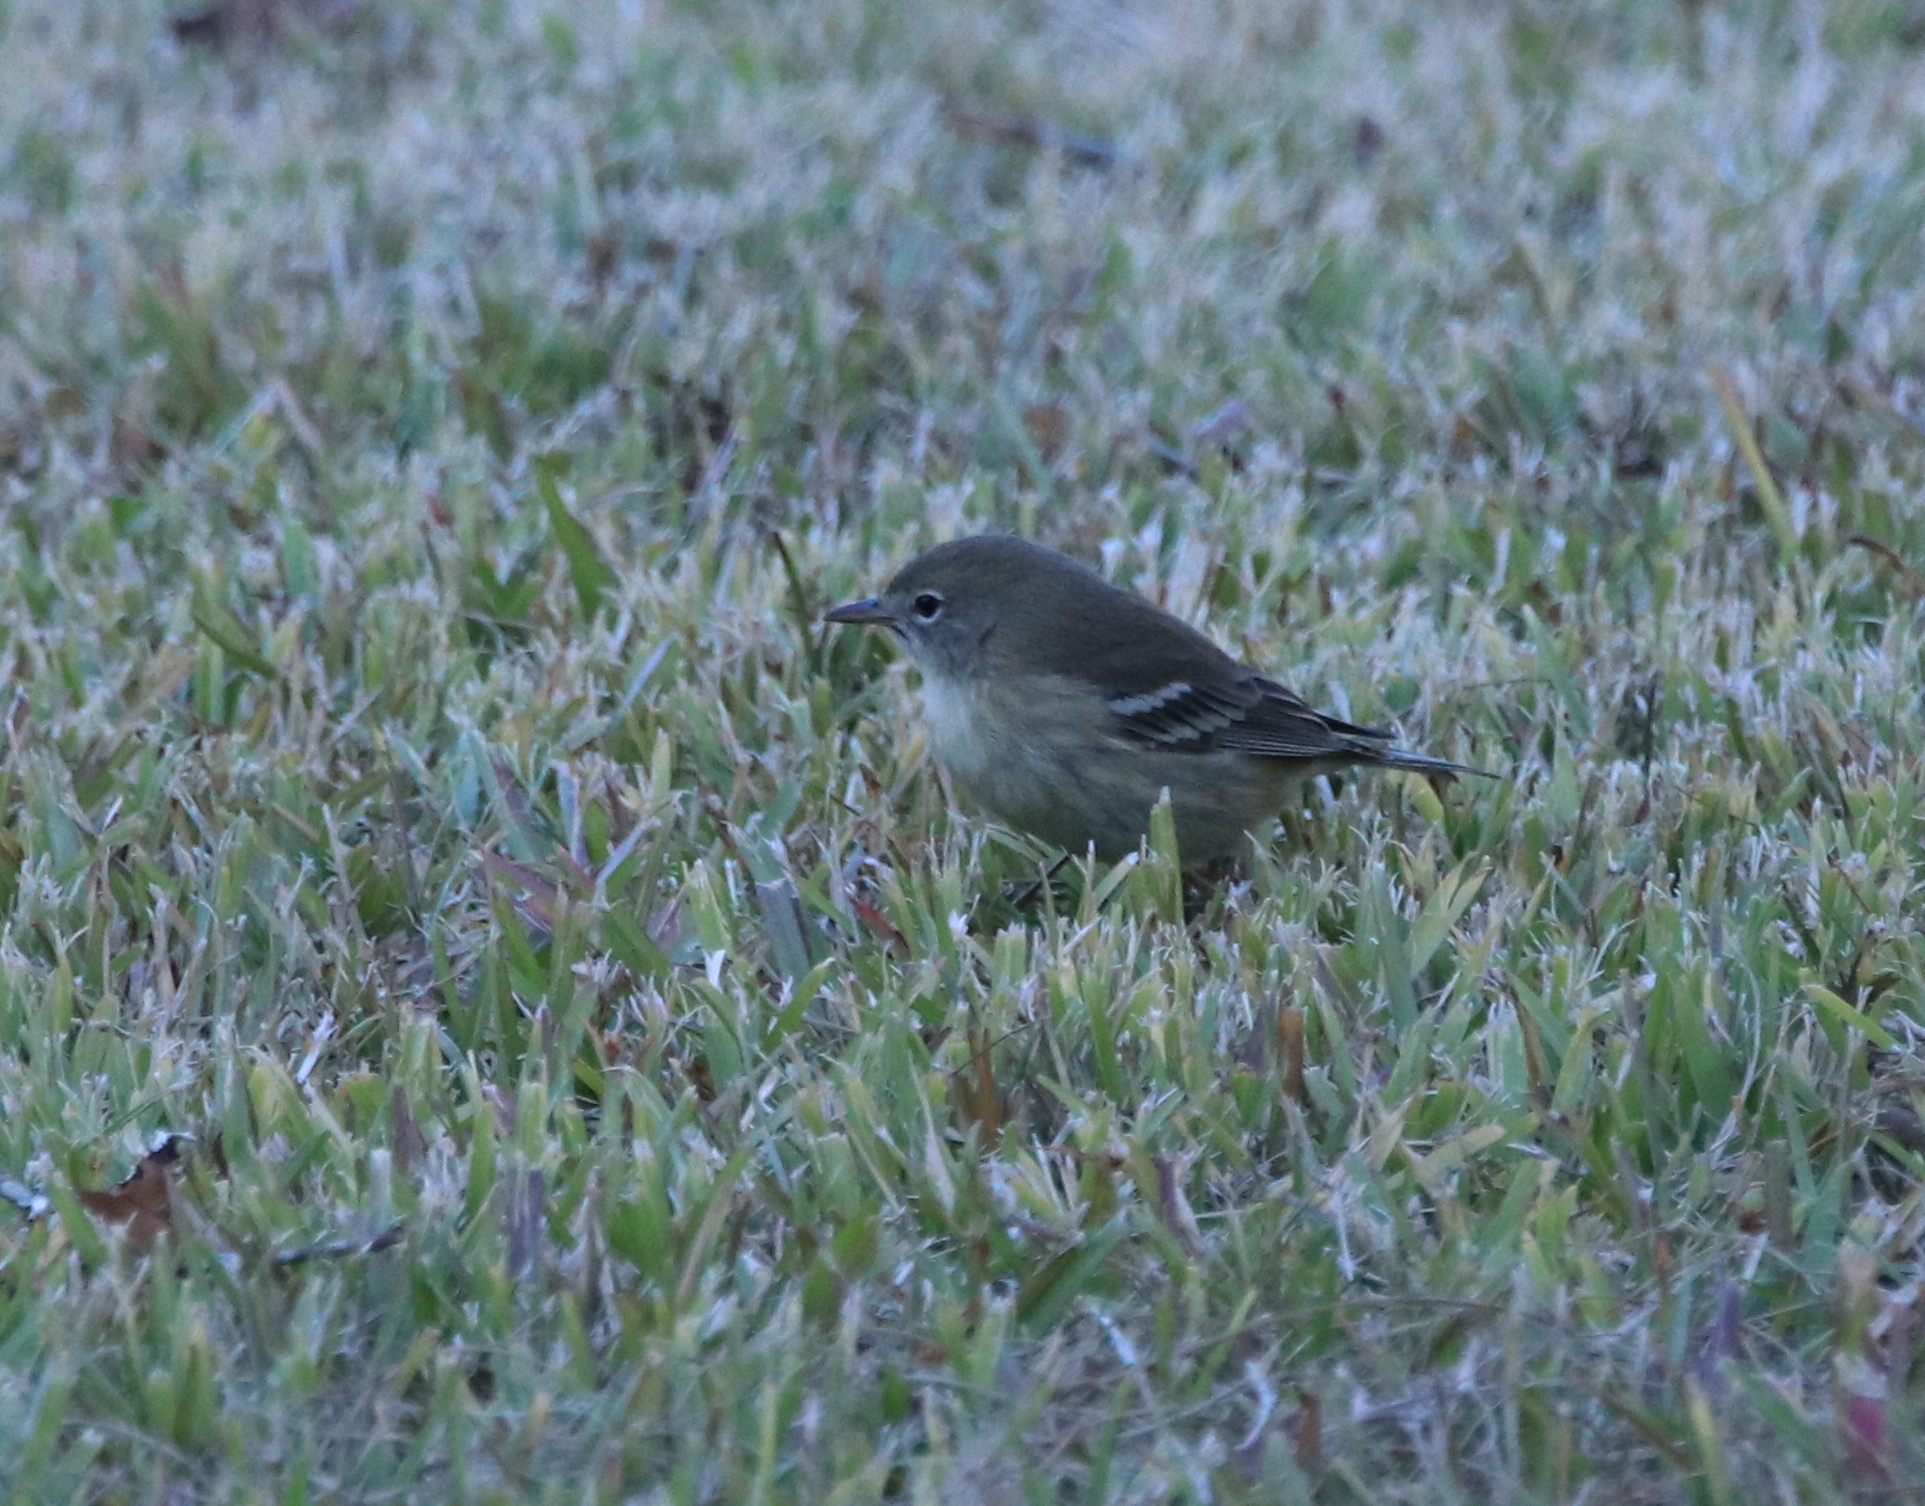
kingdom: Animalia
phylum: Chordata
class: Aves
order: Passeriformes
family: Parulidae
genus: Setophaga
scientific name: Setophaga pinus
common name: Pine warbler
